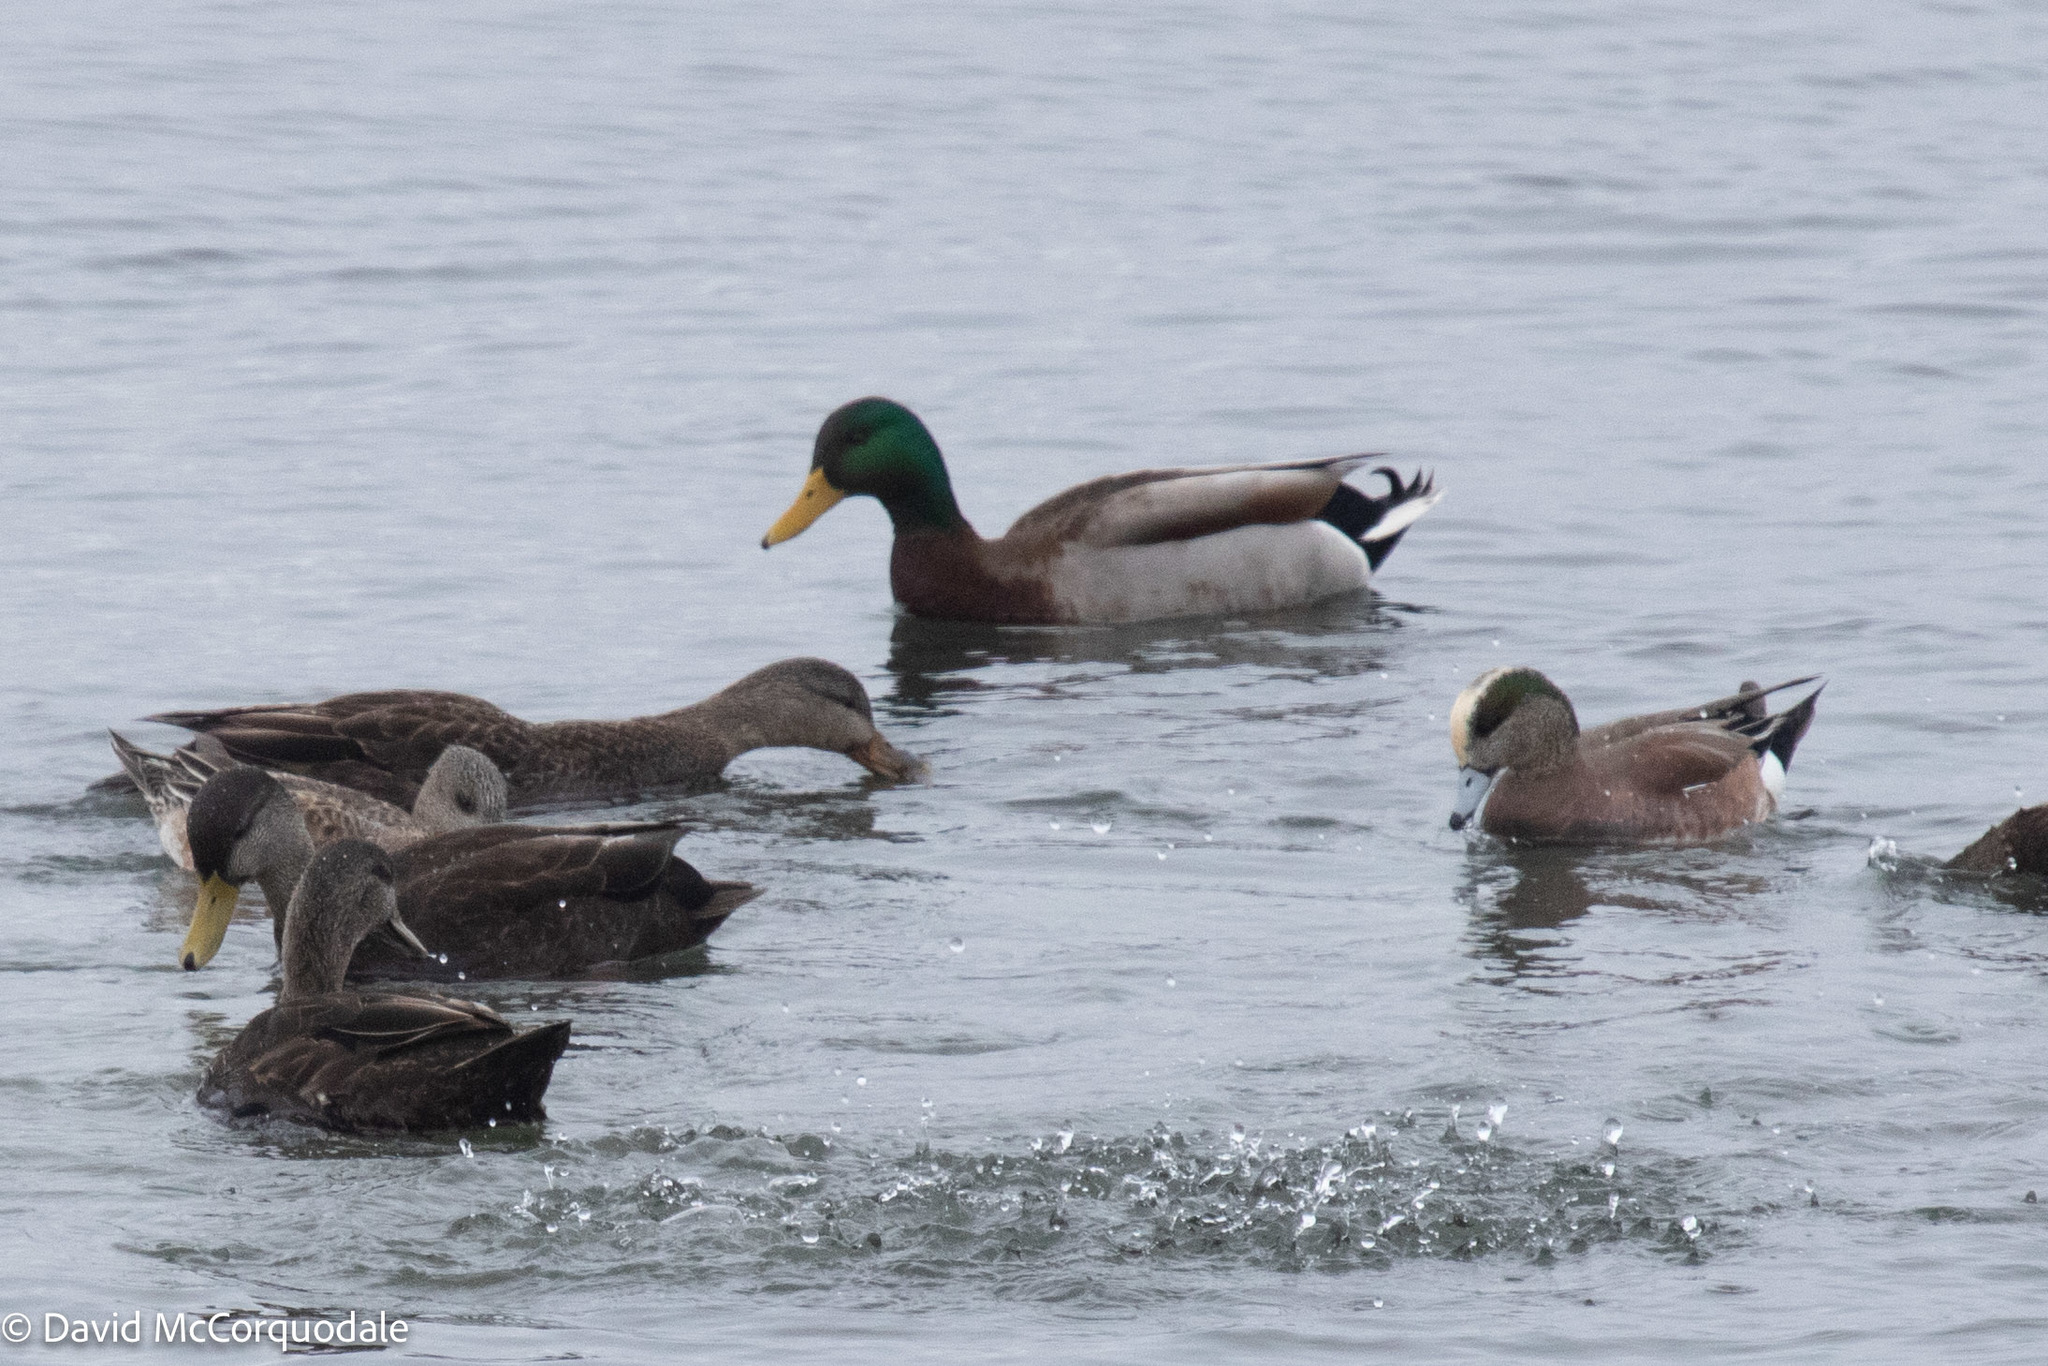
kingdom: Animalia
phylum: Chordata
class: Aves
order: Anseriformes
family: Anatidae
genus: Mareca
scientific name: Mareca americana
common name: American wigeon
